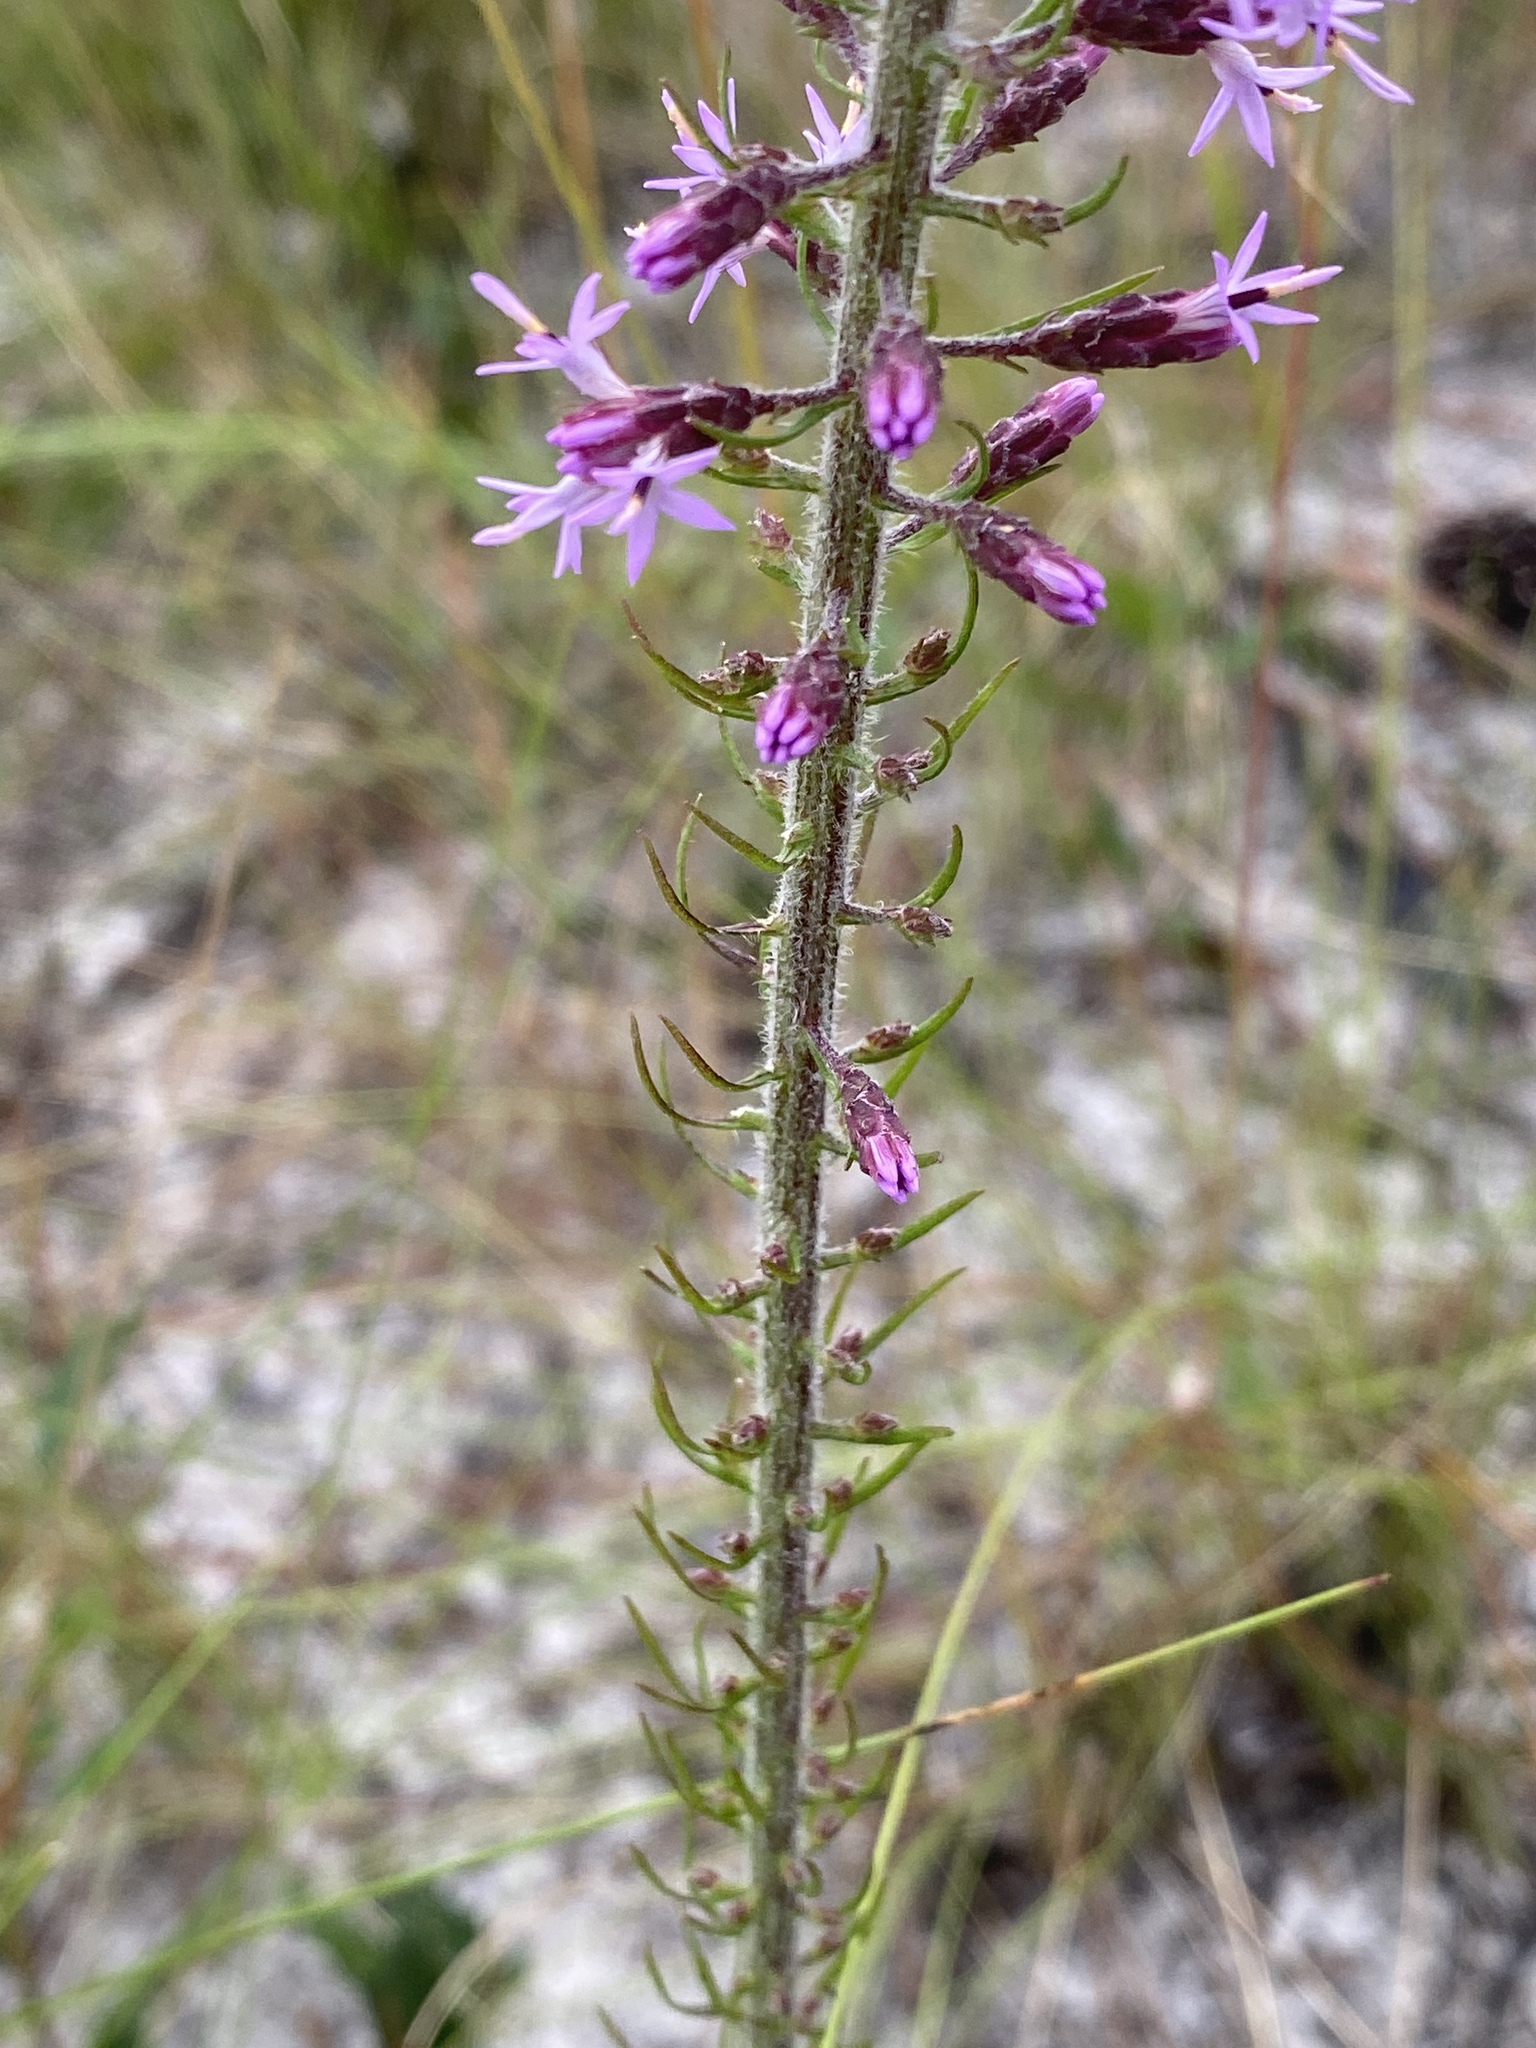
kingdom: Plantae
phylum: Tracheophyta
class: Magnoliopsida
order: Asterales
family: Asteraceae
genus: Liatris
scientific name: Liatris gracilis
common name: Slender gayfeather
